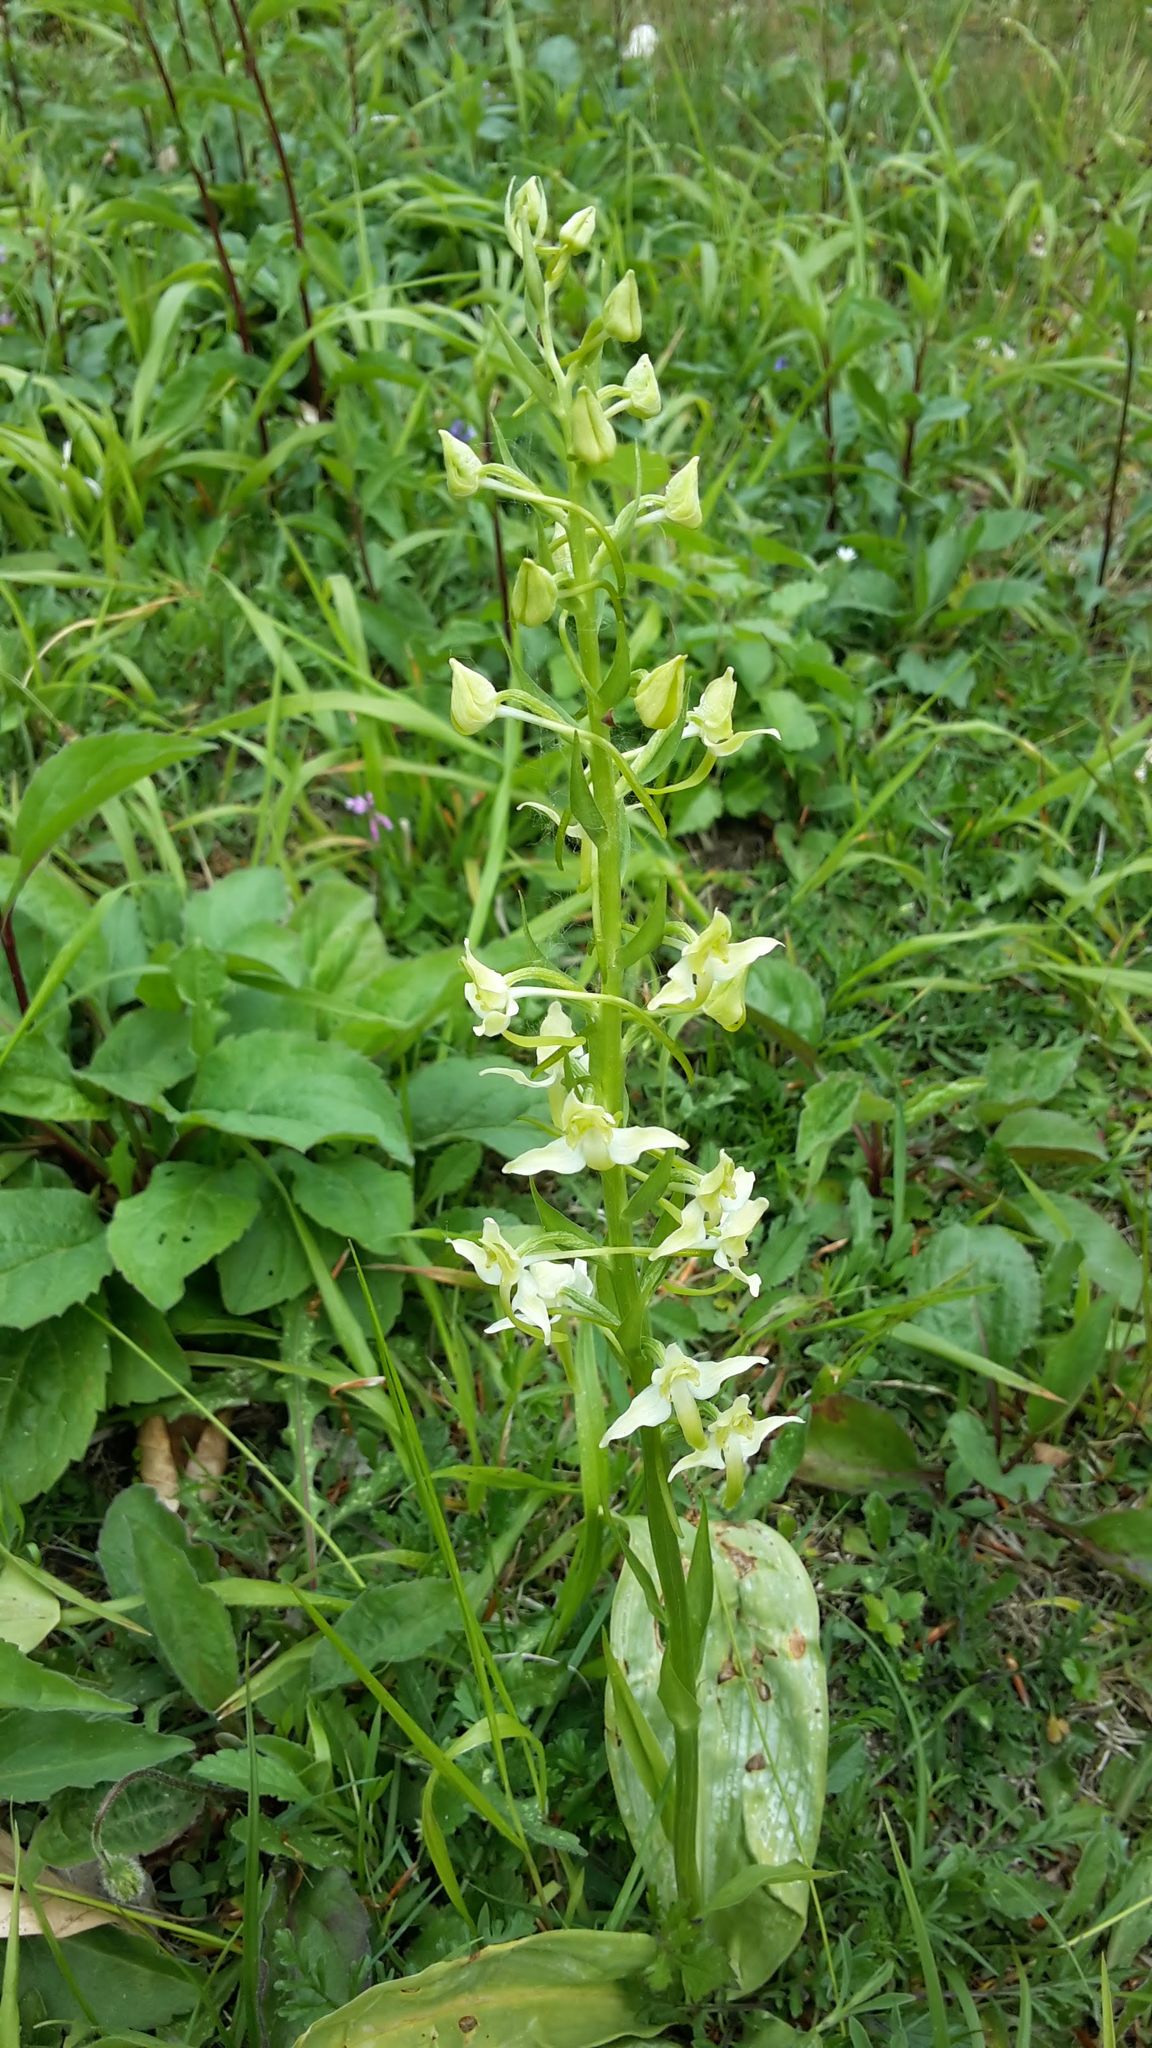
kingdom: Plantae
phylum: Tracheophyta
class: Liliopsida
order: Asparagales
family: Orchidaceae
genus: Platanthera
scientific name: Platanthera chlorantha
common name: Greater butterfly-orchid
